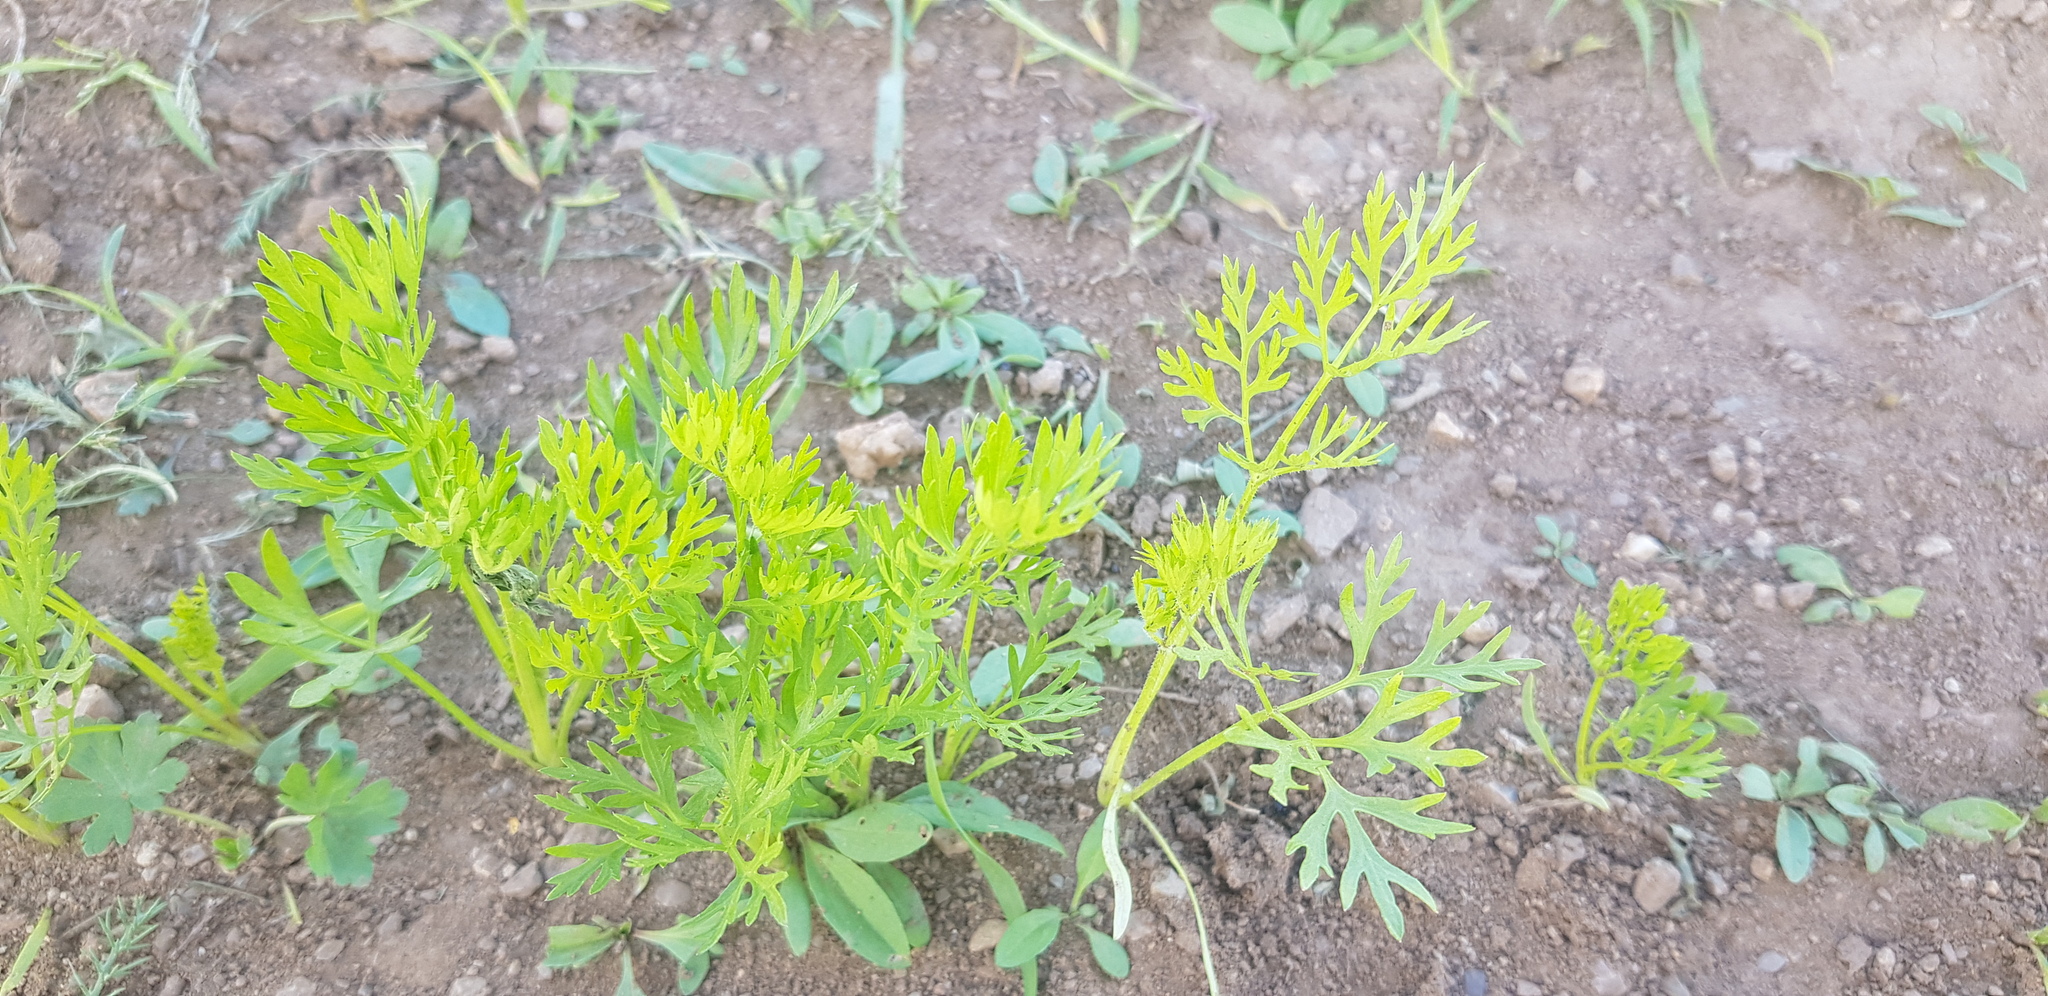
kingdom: Plantae
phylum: Tracheophyta
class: Magnoliopsida
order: Apiales
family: Apiaceae
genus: Daucus
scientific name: Daucus carota
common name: Wild carrot
